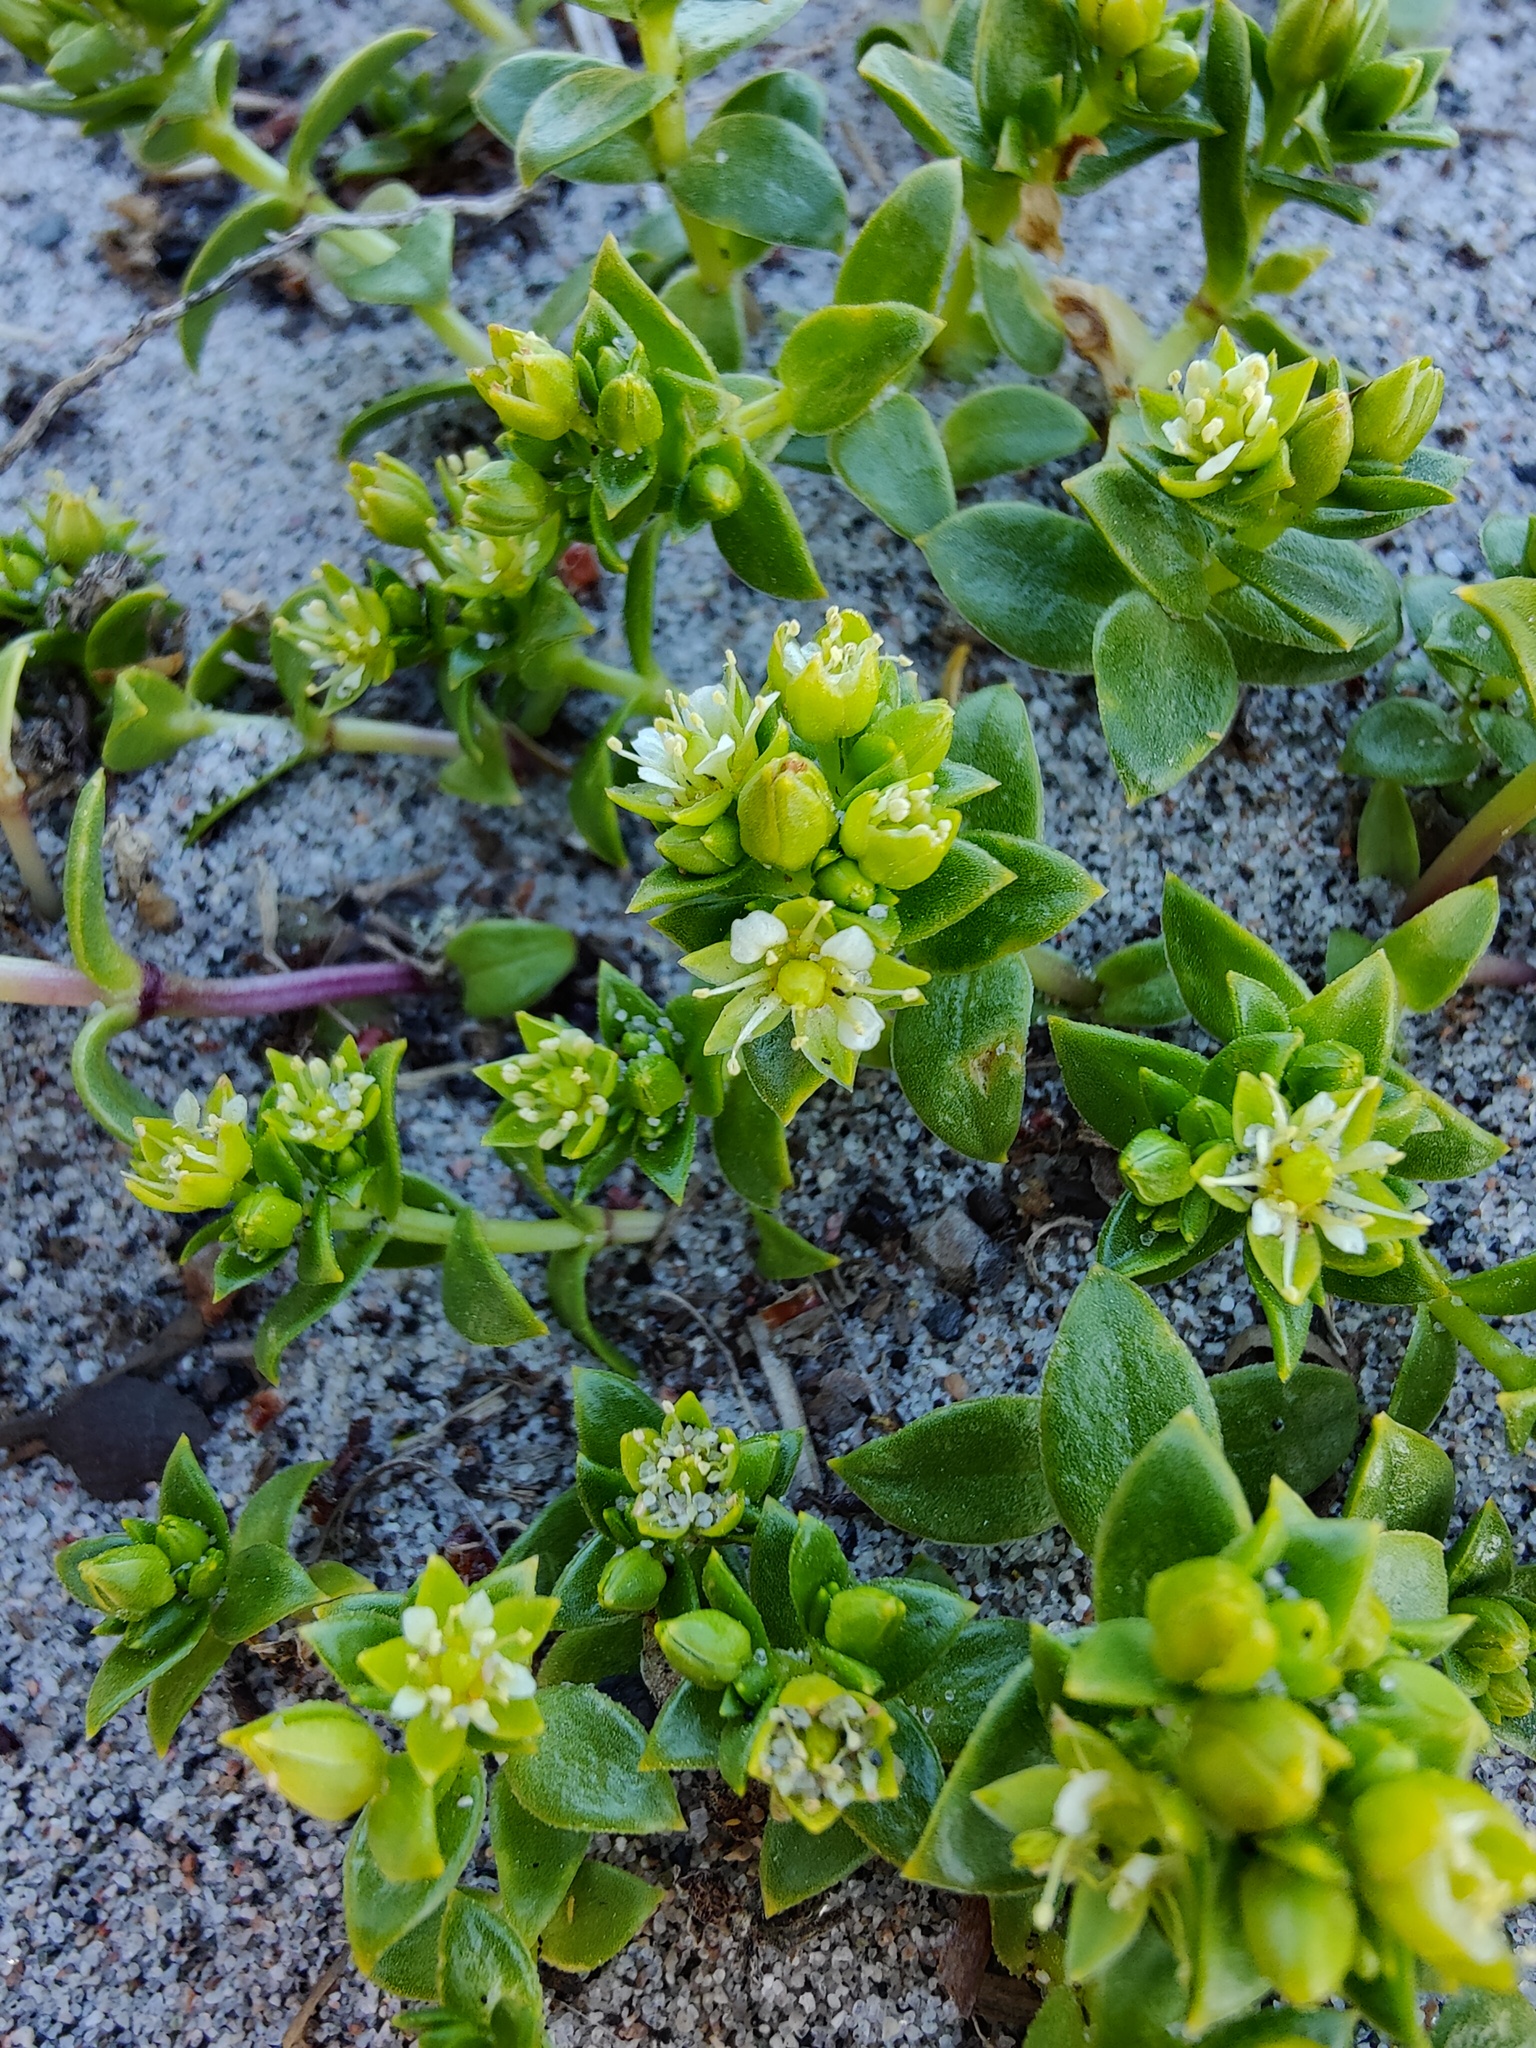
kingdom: Plantae
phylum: Tracheophyta
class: Magnoliopsida
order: Caryophyllales
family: Caryophyllaceae
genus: Honckenya
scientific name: Honckenya peploides
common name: Sea sandwort
